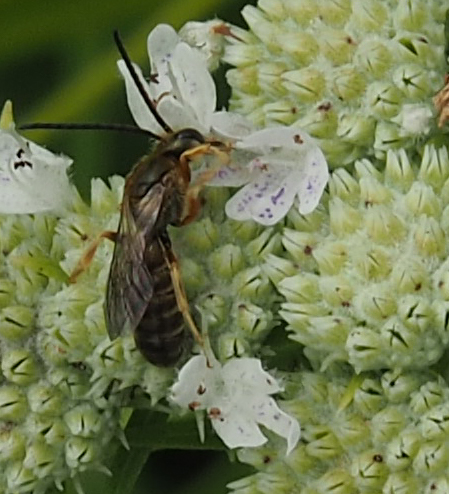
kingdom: Animalia
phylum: Arthropoda
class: Insecta
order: Hymenoptera
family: Halictidae
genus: Halictus
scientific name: Halictus confusus
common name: Southern bronze furrow bee
